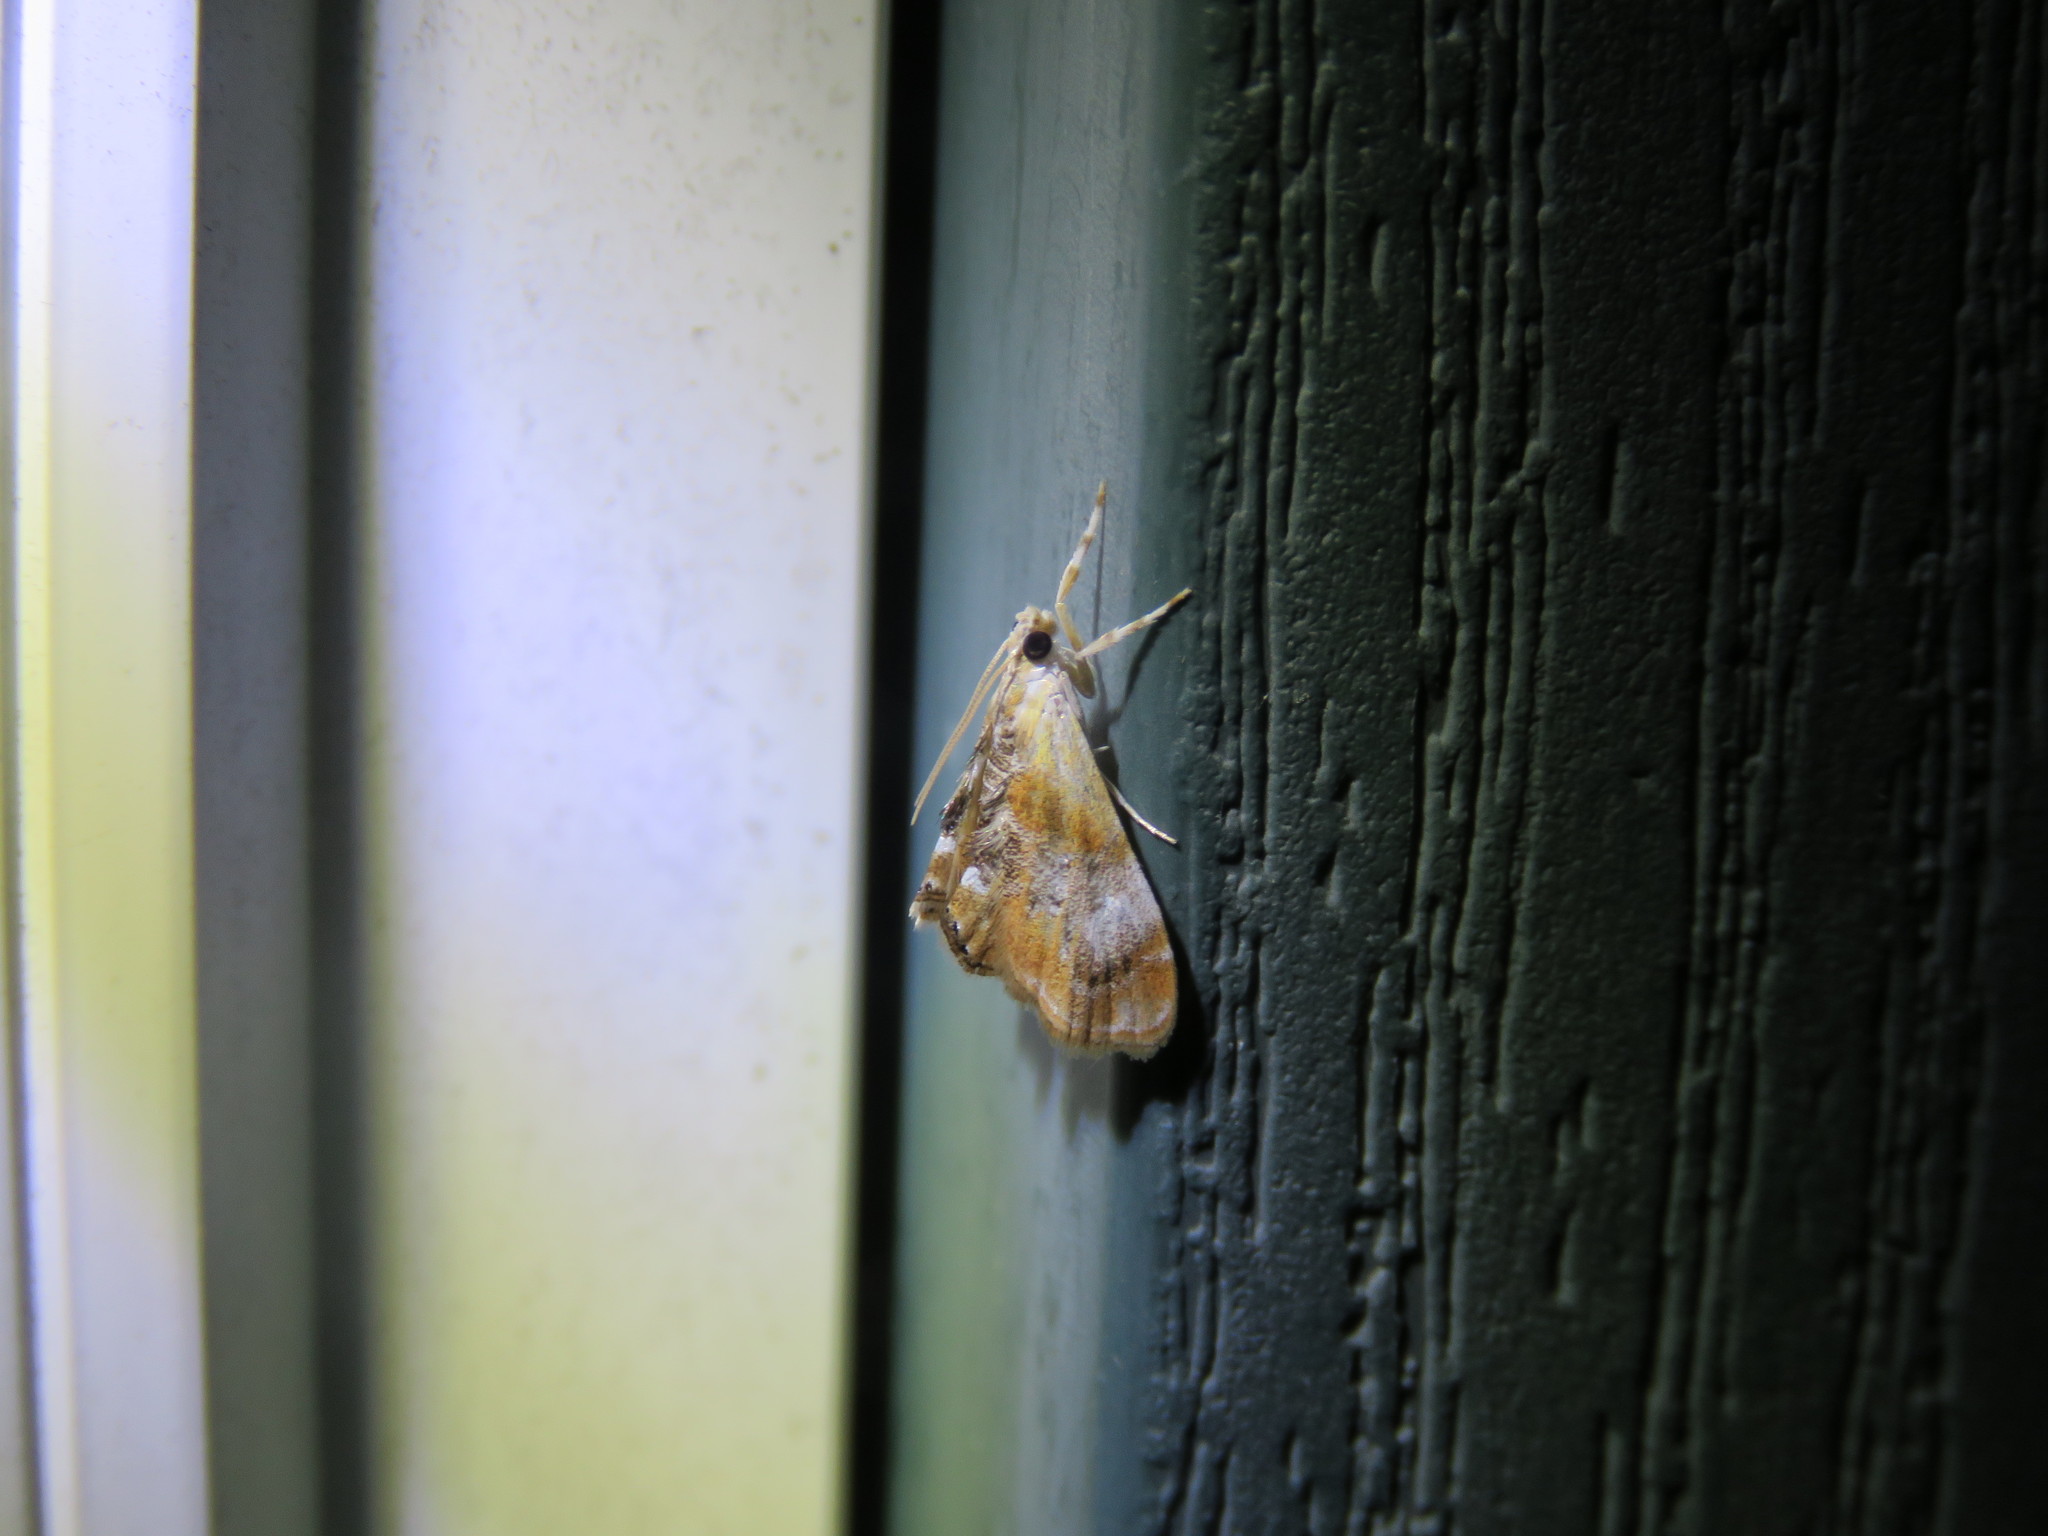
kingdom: Animalia
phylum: Arthropoda
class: Insecta
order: Lepidoptera
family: Crambidae
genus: Dicymolomia
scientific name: Dicymolomia julianalis
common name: Julia's dicymolomia moth
